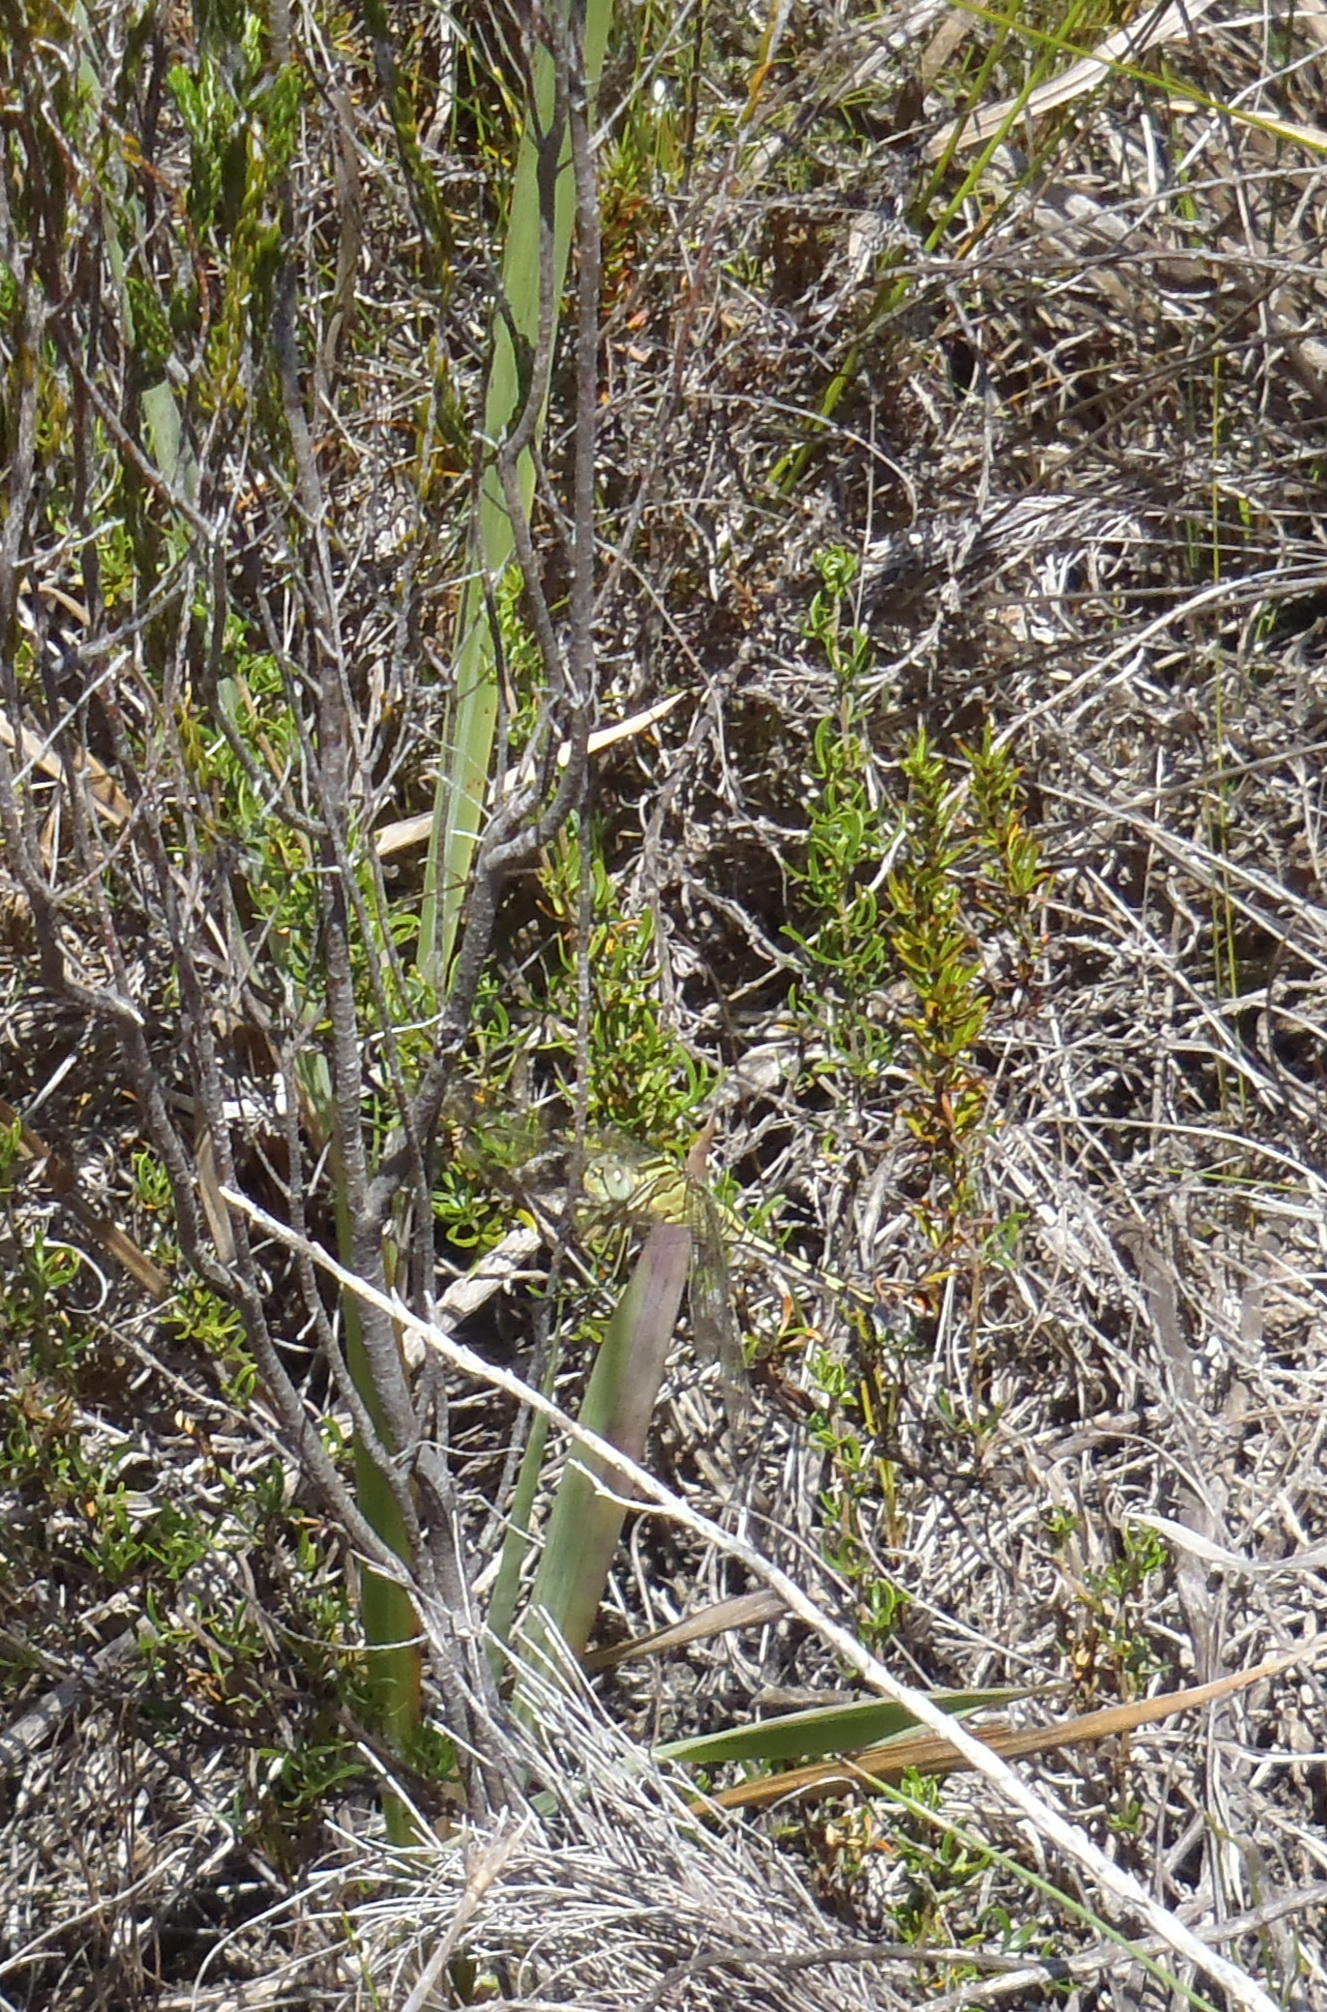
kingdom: Plantae
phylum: Tracheophyta
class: Liliopsida
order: Poales
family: Poaceae
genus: Pentameris
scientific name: Pentameris barbata
